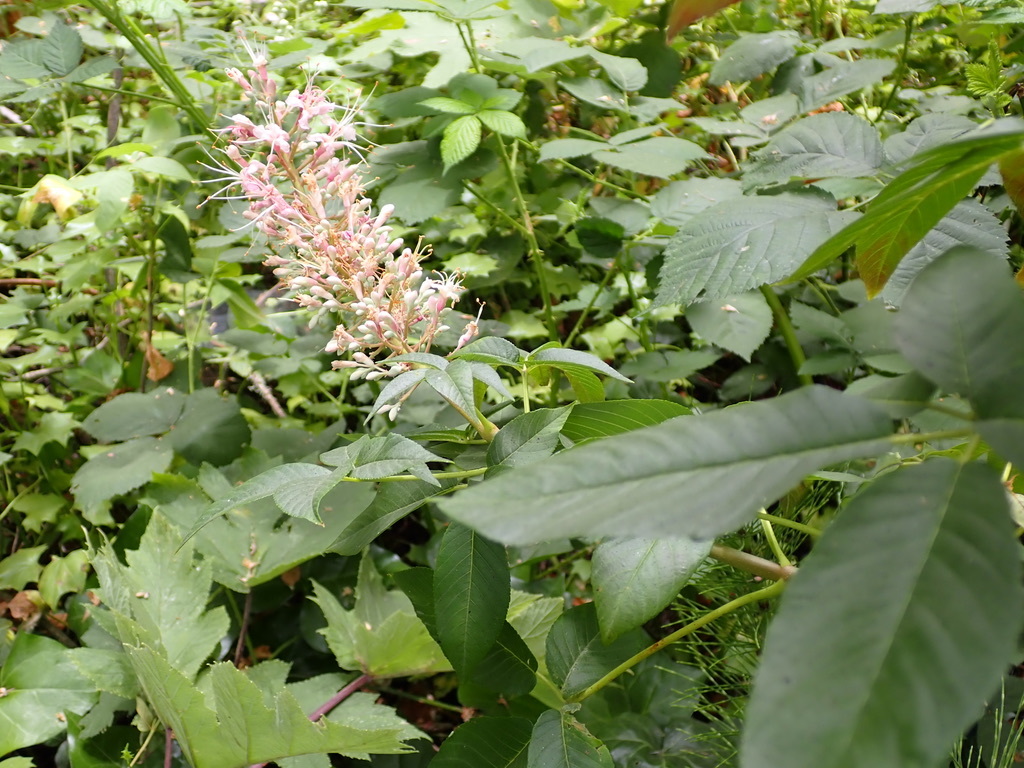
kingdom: Plantae
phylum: Tracheophyta
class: Magnoliopsida
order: Sapindales
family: Sapindaceae
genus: Aesculus
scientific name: Aesculus californica
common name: California buckeye
